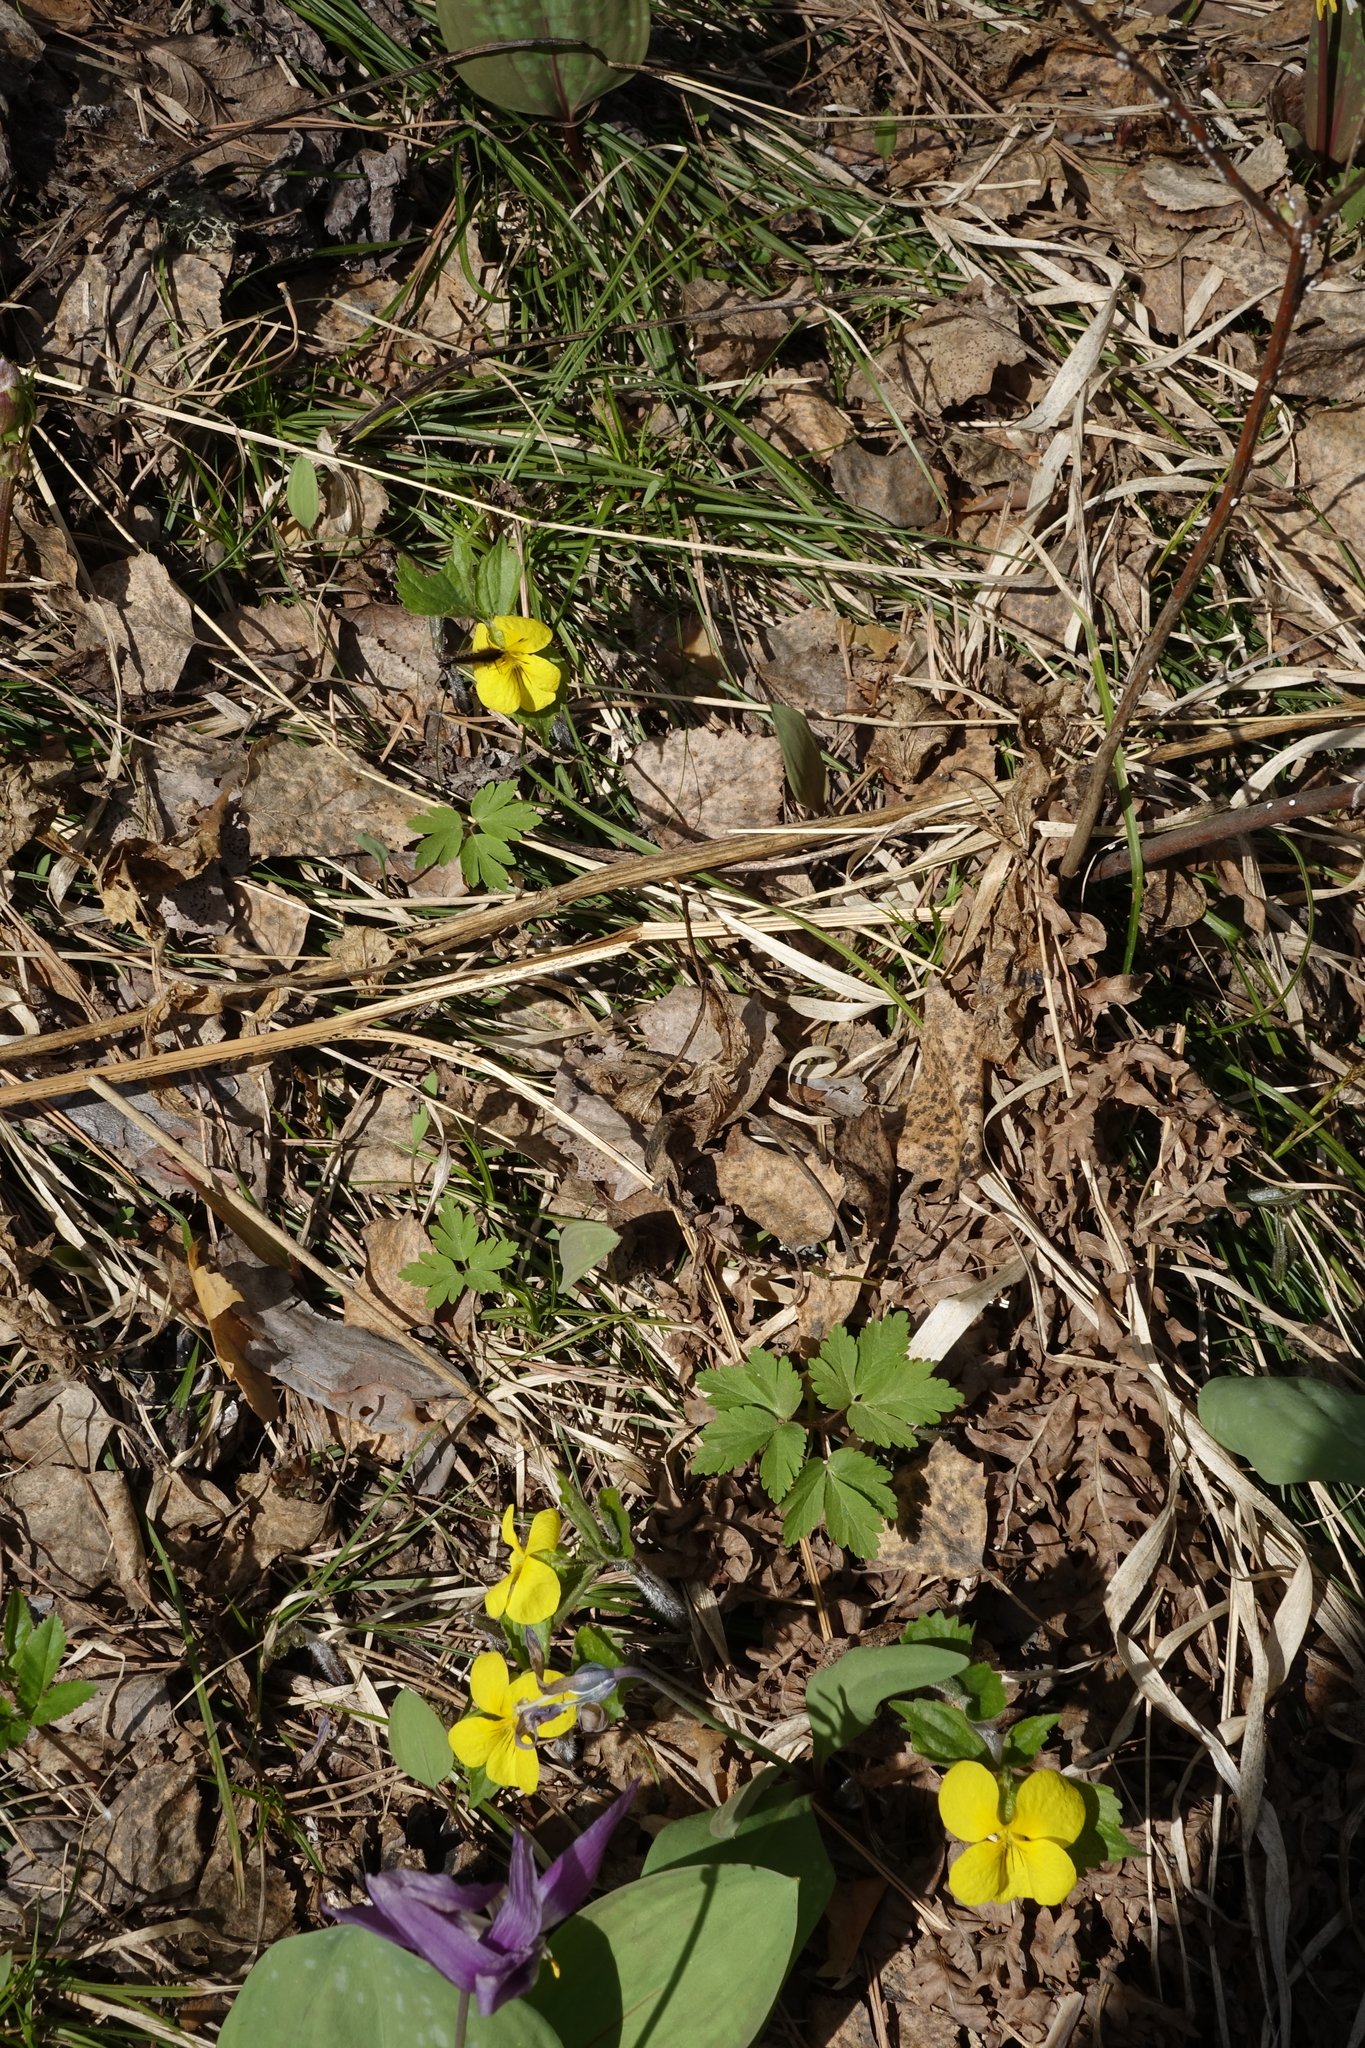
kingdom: Plantae
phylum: Tracheophyta
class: Magnoliopsida
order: Malpighiales
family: Violaceae
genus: Viola
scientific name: Viola uniflora
